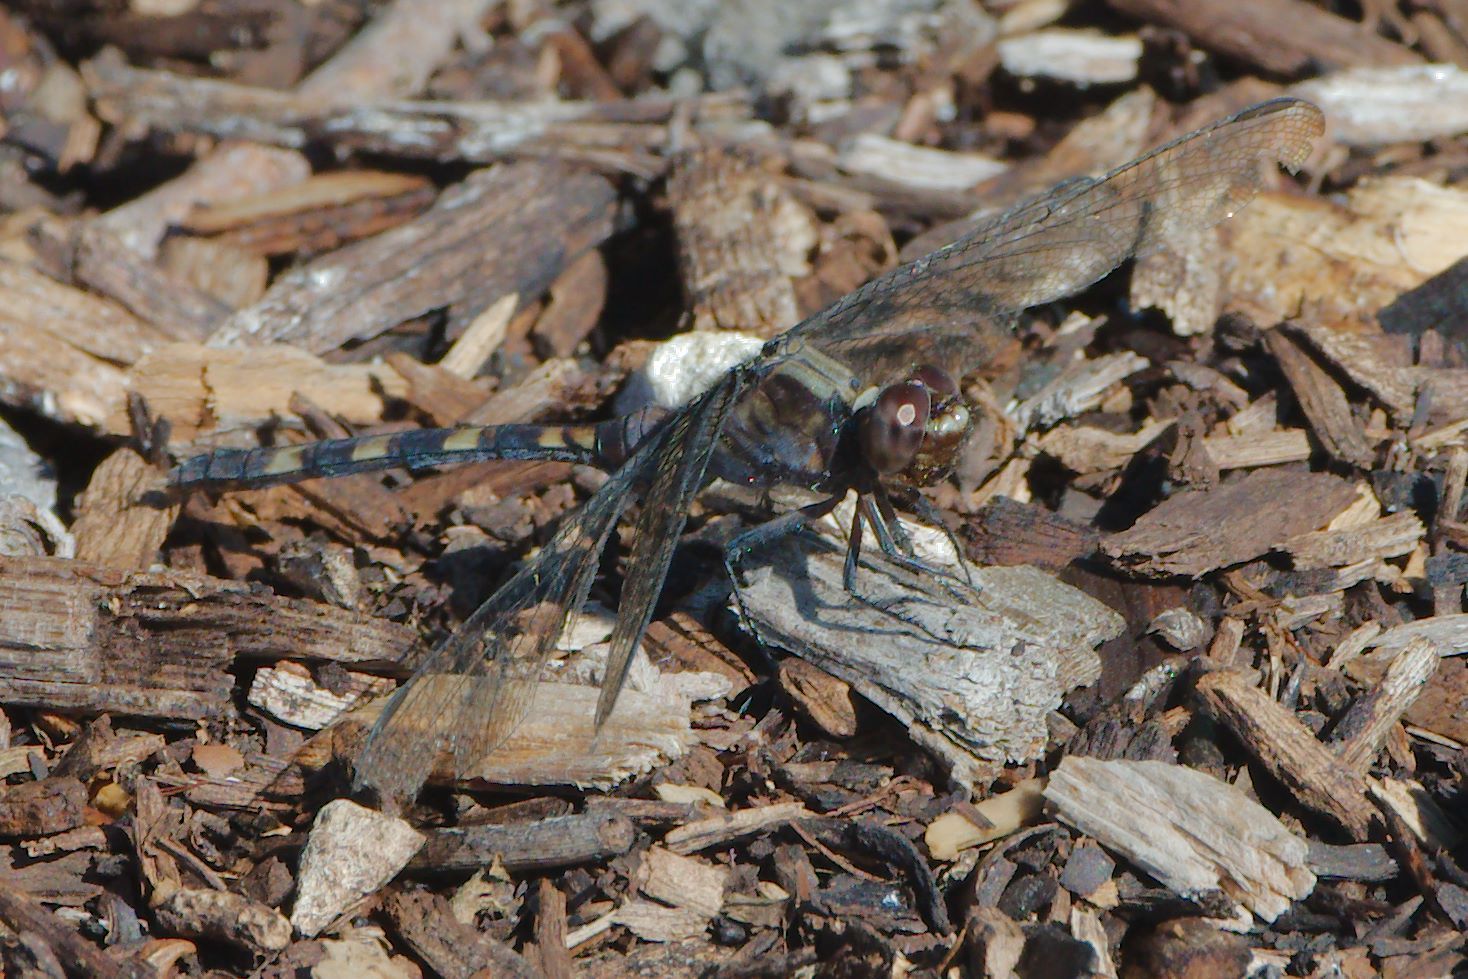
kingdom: Animalia
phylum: Arthropoda
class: Insecta
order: Odonata
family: Libellulidae
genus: Erythemis
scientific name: Erythemis plebeja
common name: Pin-tailed pondhawk
